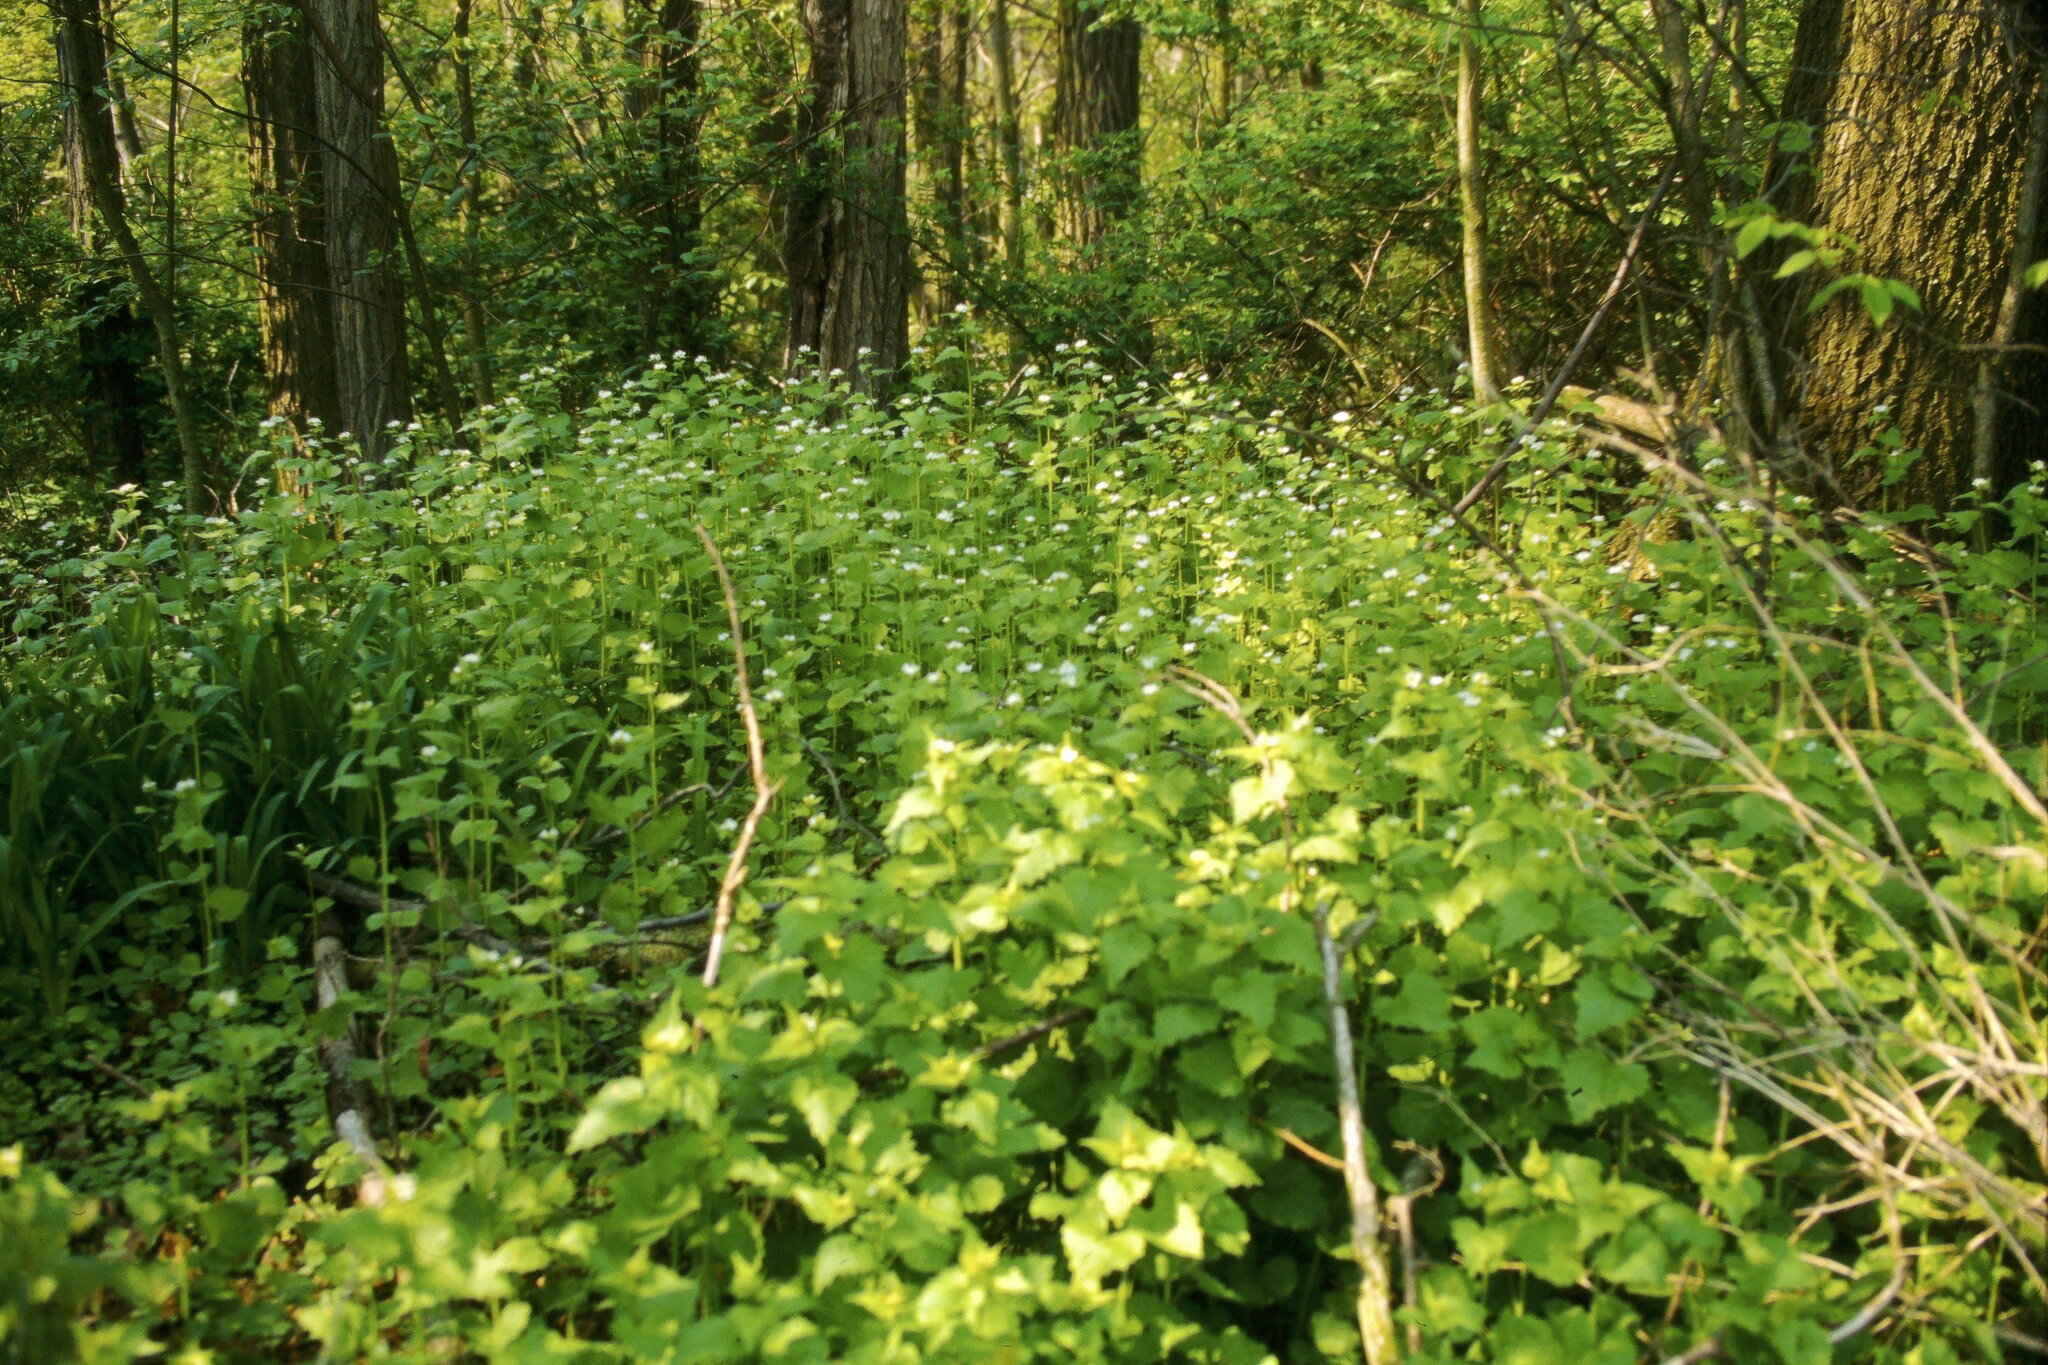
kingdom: Plantae
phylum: Tracheophyta
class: Magnoliopsida
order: Brassicales
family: Brassicaceae
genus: Alliaria
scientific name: Alliaria petiolata
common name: Garlic mustard
